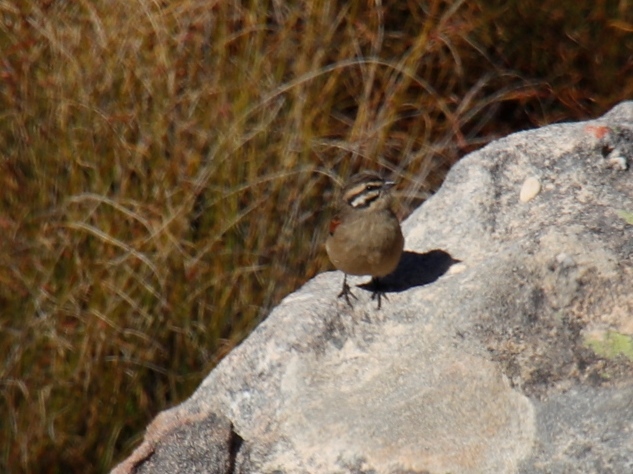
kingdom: Animalia
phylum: Chordata
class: Aves
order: Passeriformes
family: Emberizidae
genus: Emberiza
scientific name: Emberiza capensis
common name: Cape bunting
